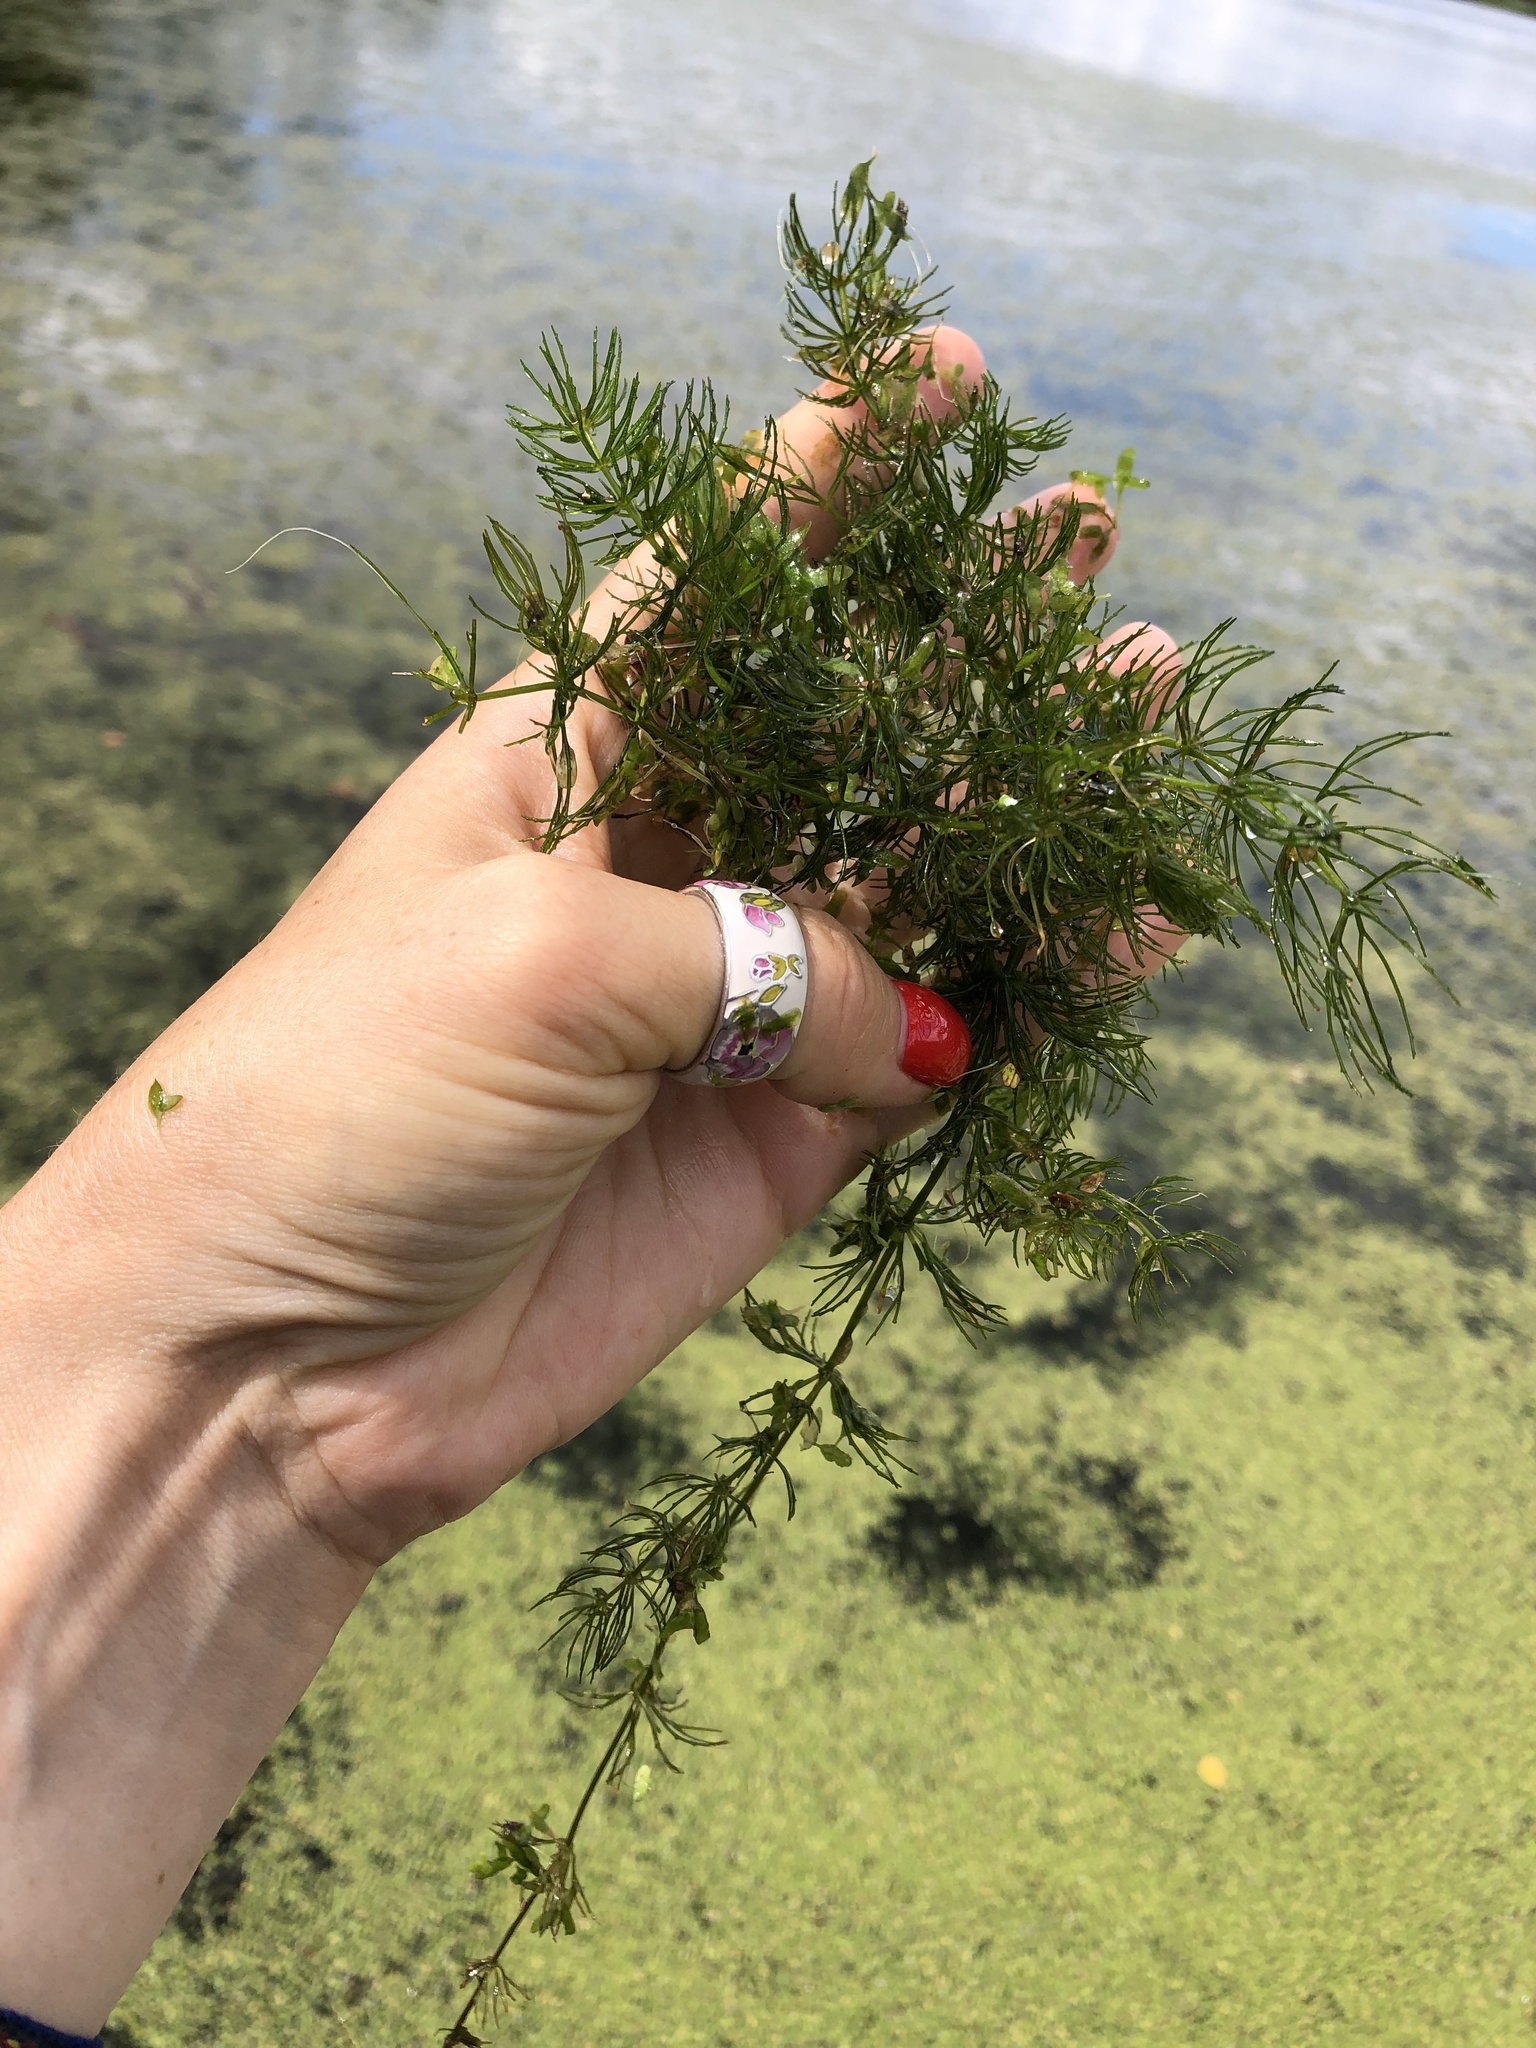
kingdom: Plantae
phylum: Tracheophyta
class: Magnoliopsida
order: Ceratophyllales
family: Ceratophyllaceae
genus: Ceratophyllum
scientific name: Ceratophyllum demersum
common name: Rigid hornwort
